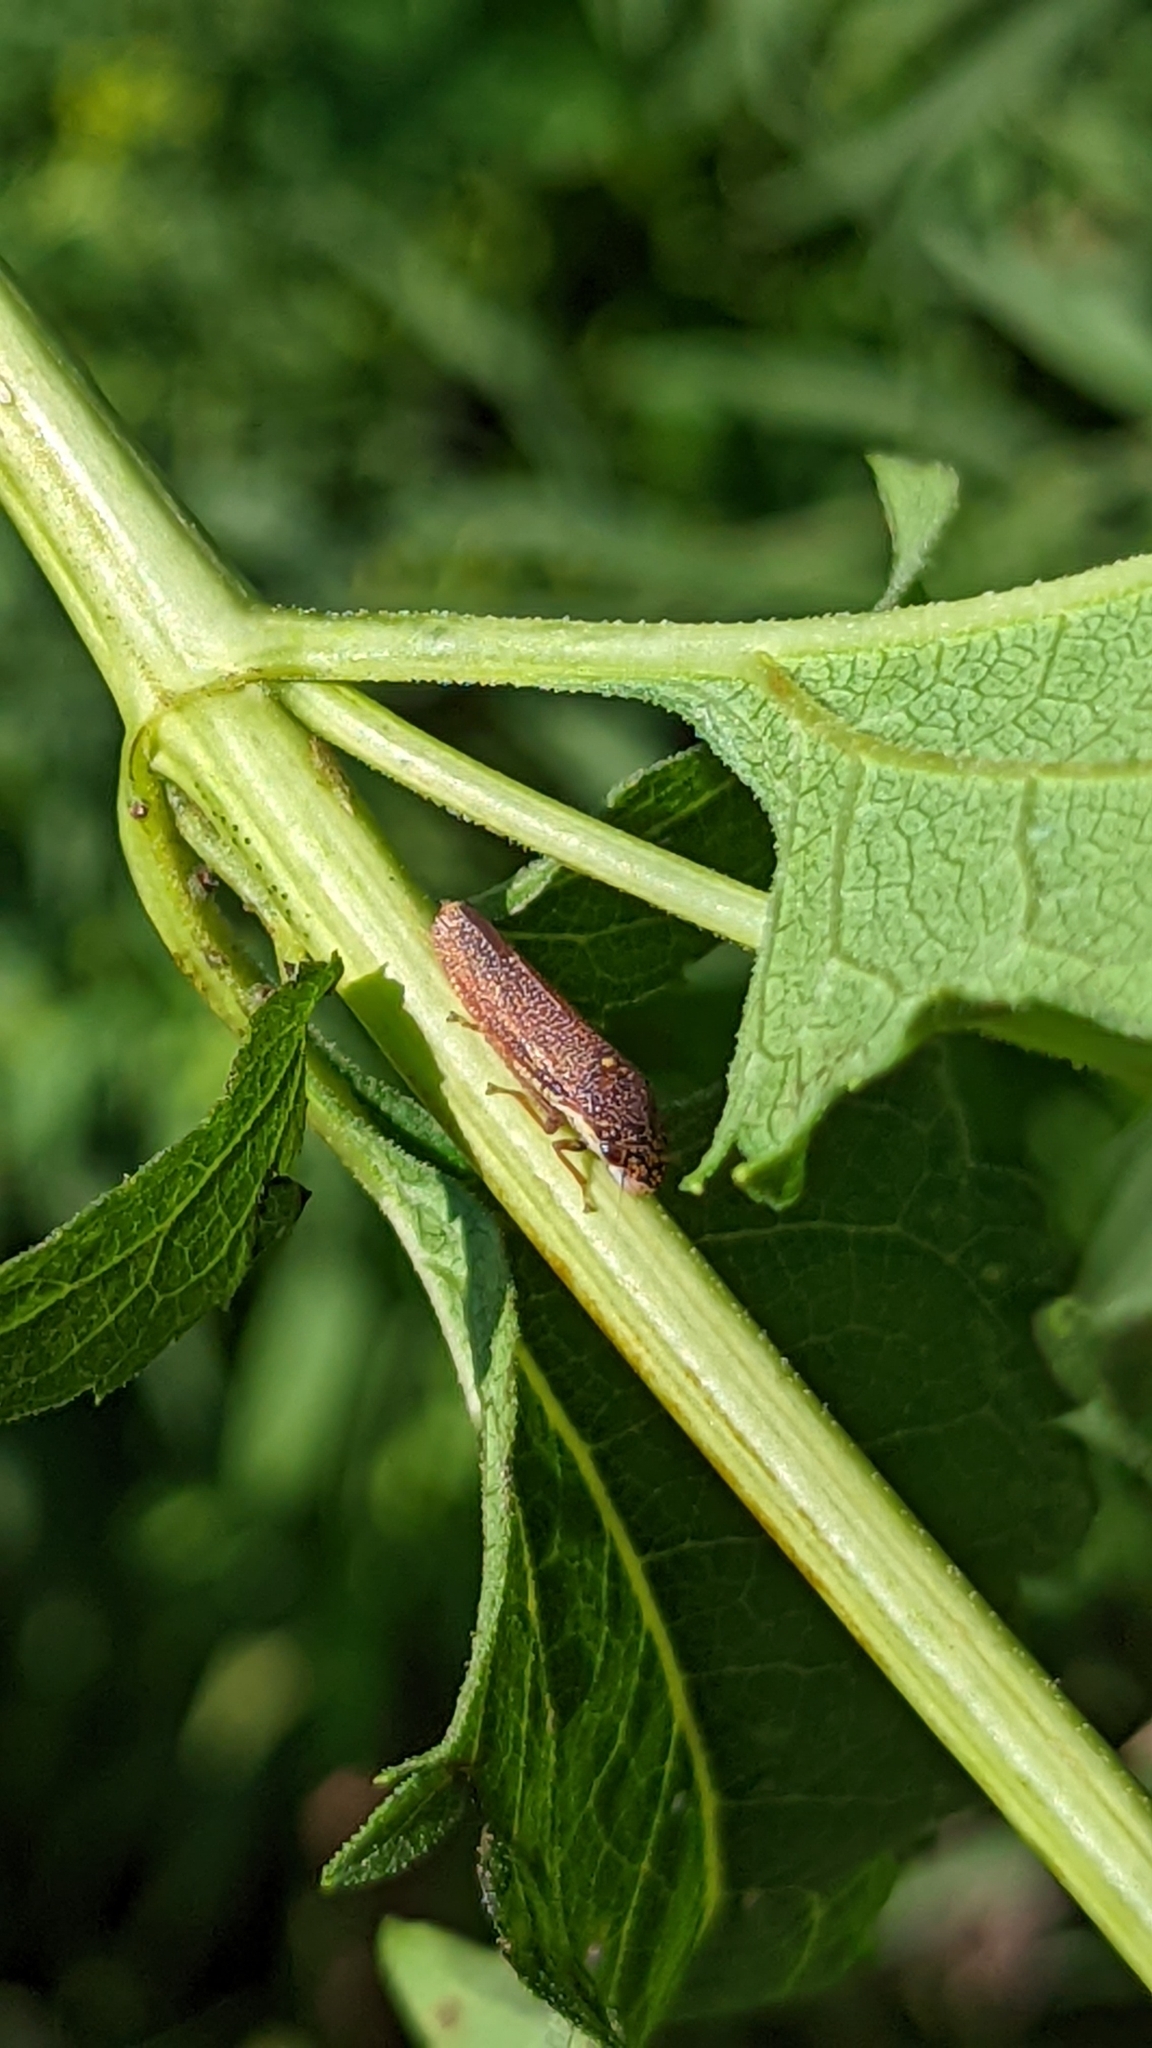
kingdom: Animalia
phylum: Arthropoda
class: Insecta
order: Hemiptera
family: Cicadellidae
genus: Paraulacizes
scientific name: Paraulacizes irrorata
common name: Speckled sharpshooter
